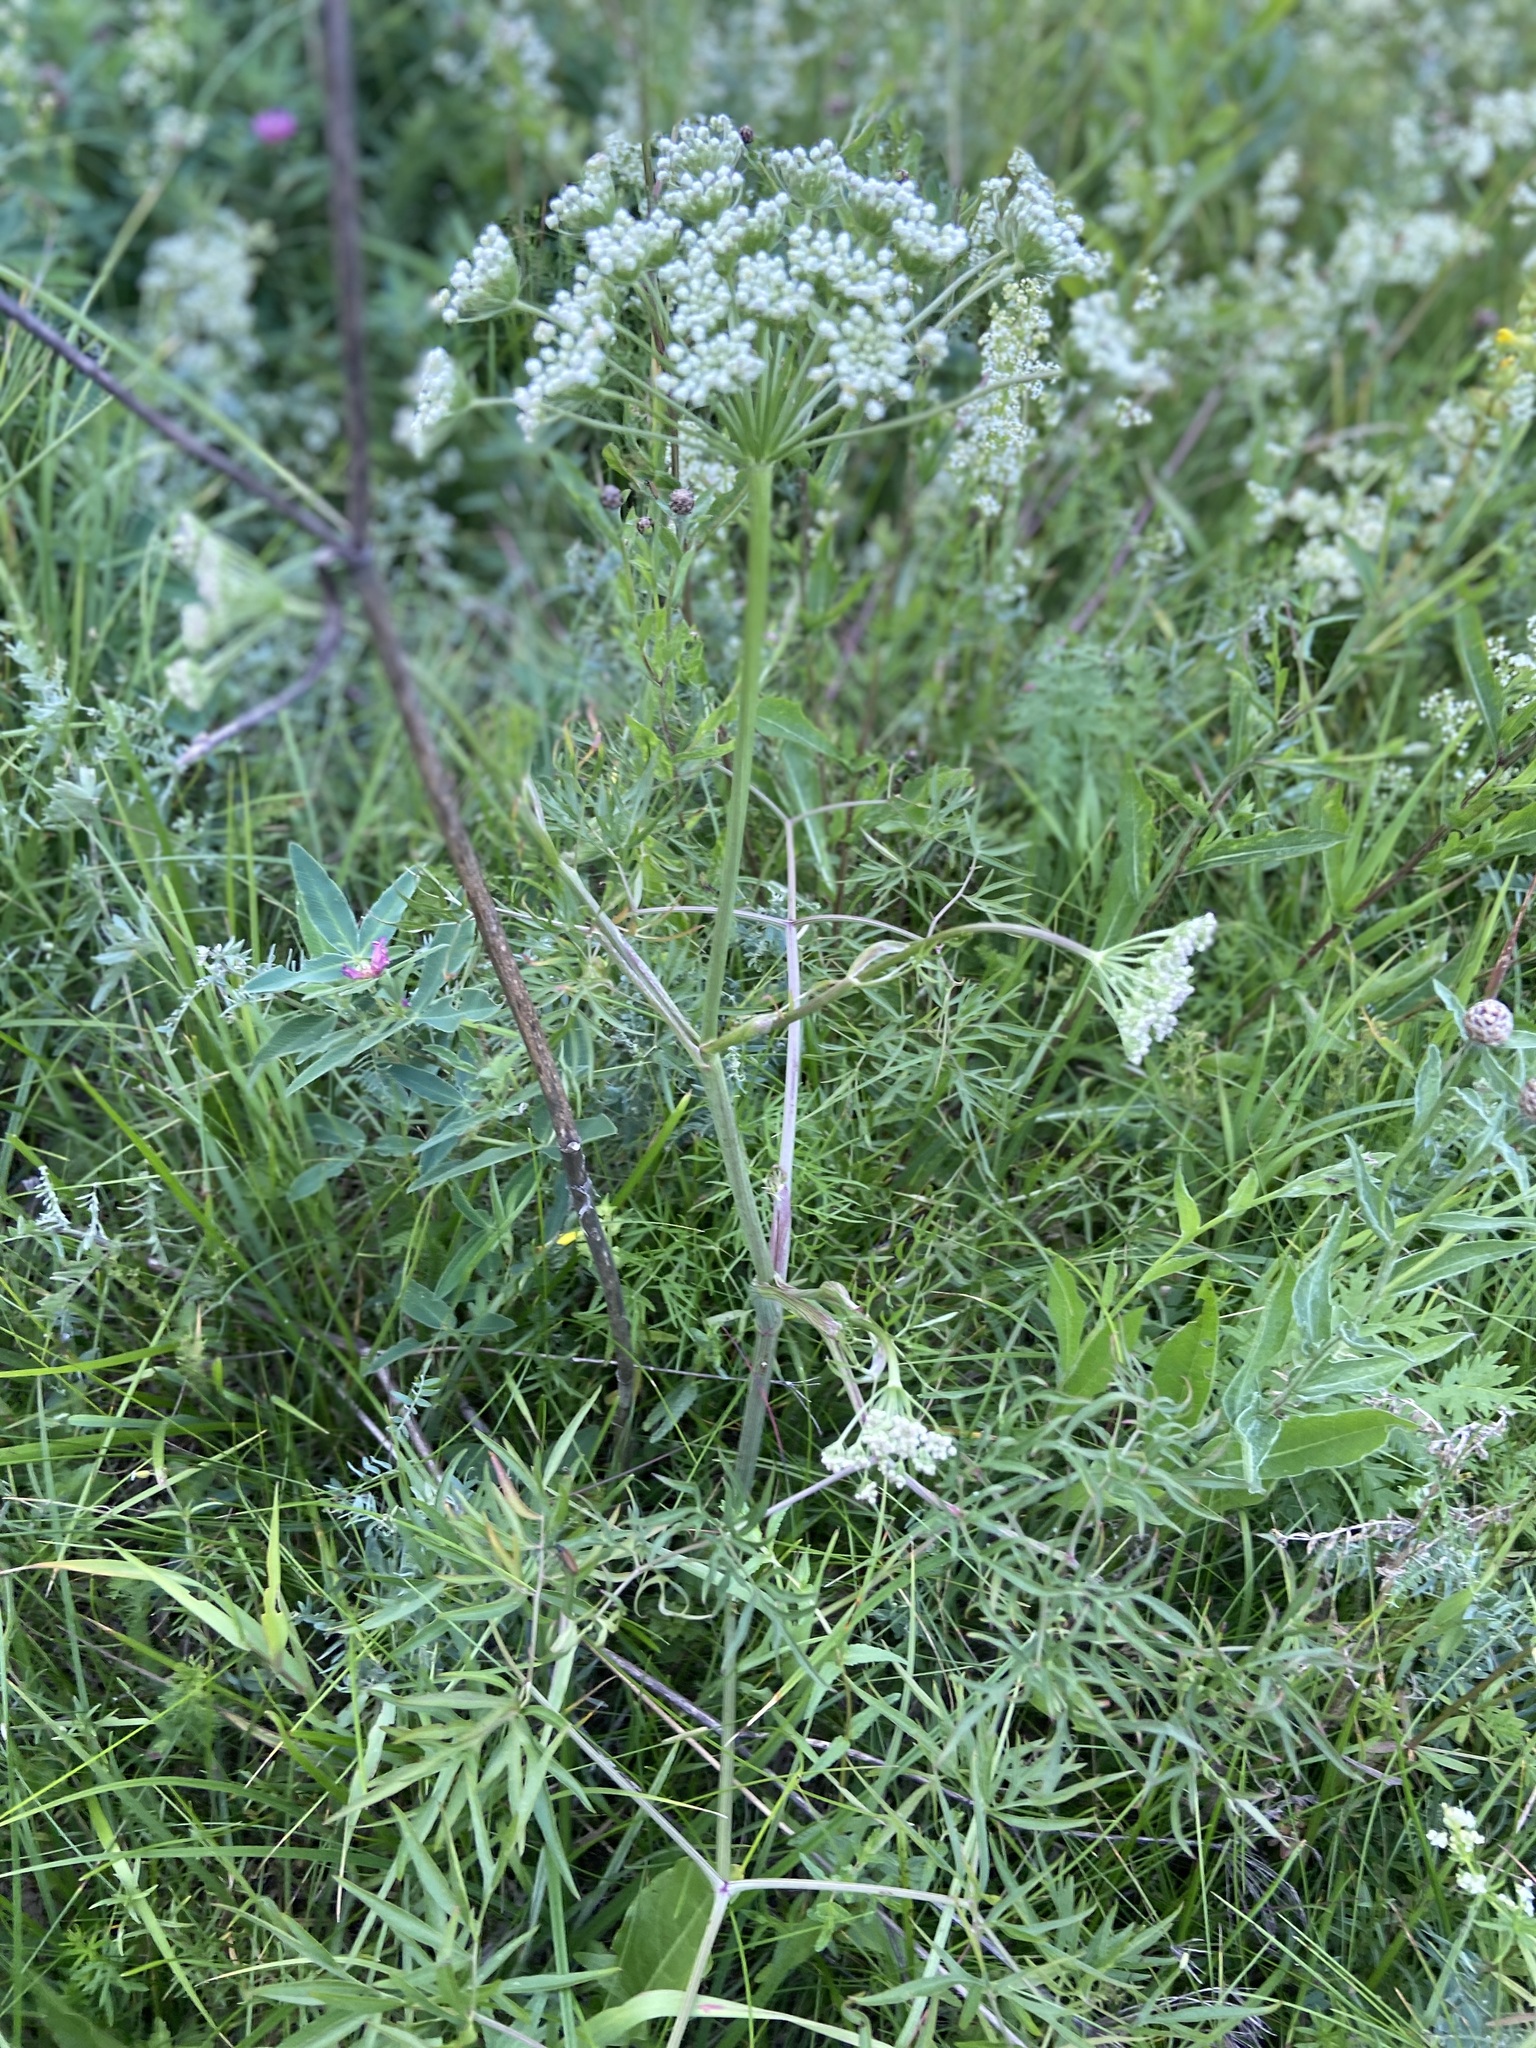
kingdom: Plantae
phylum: Tracheophyta
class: Magnoliopsida
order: Apiales
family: Apiaceae
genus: Cenolophium
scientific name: Cenolophium fischeri
